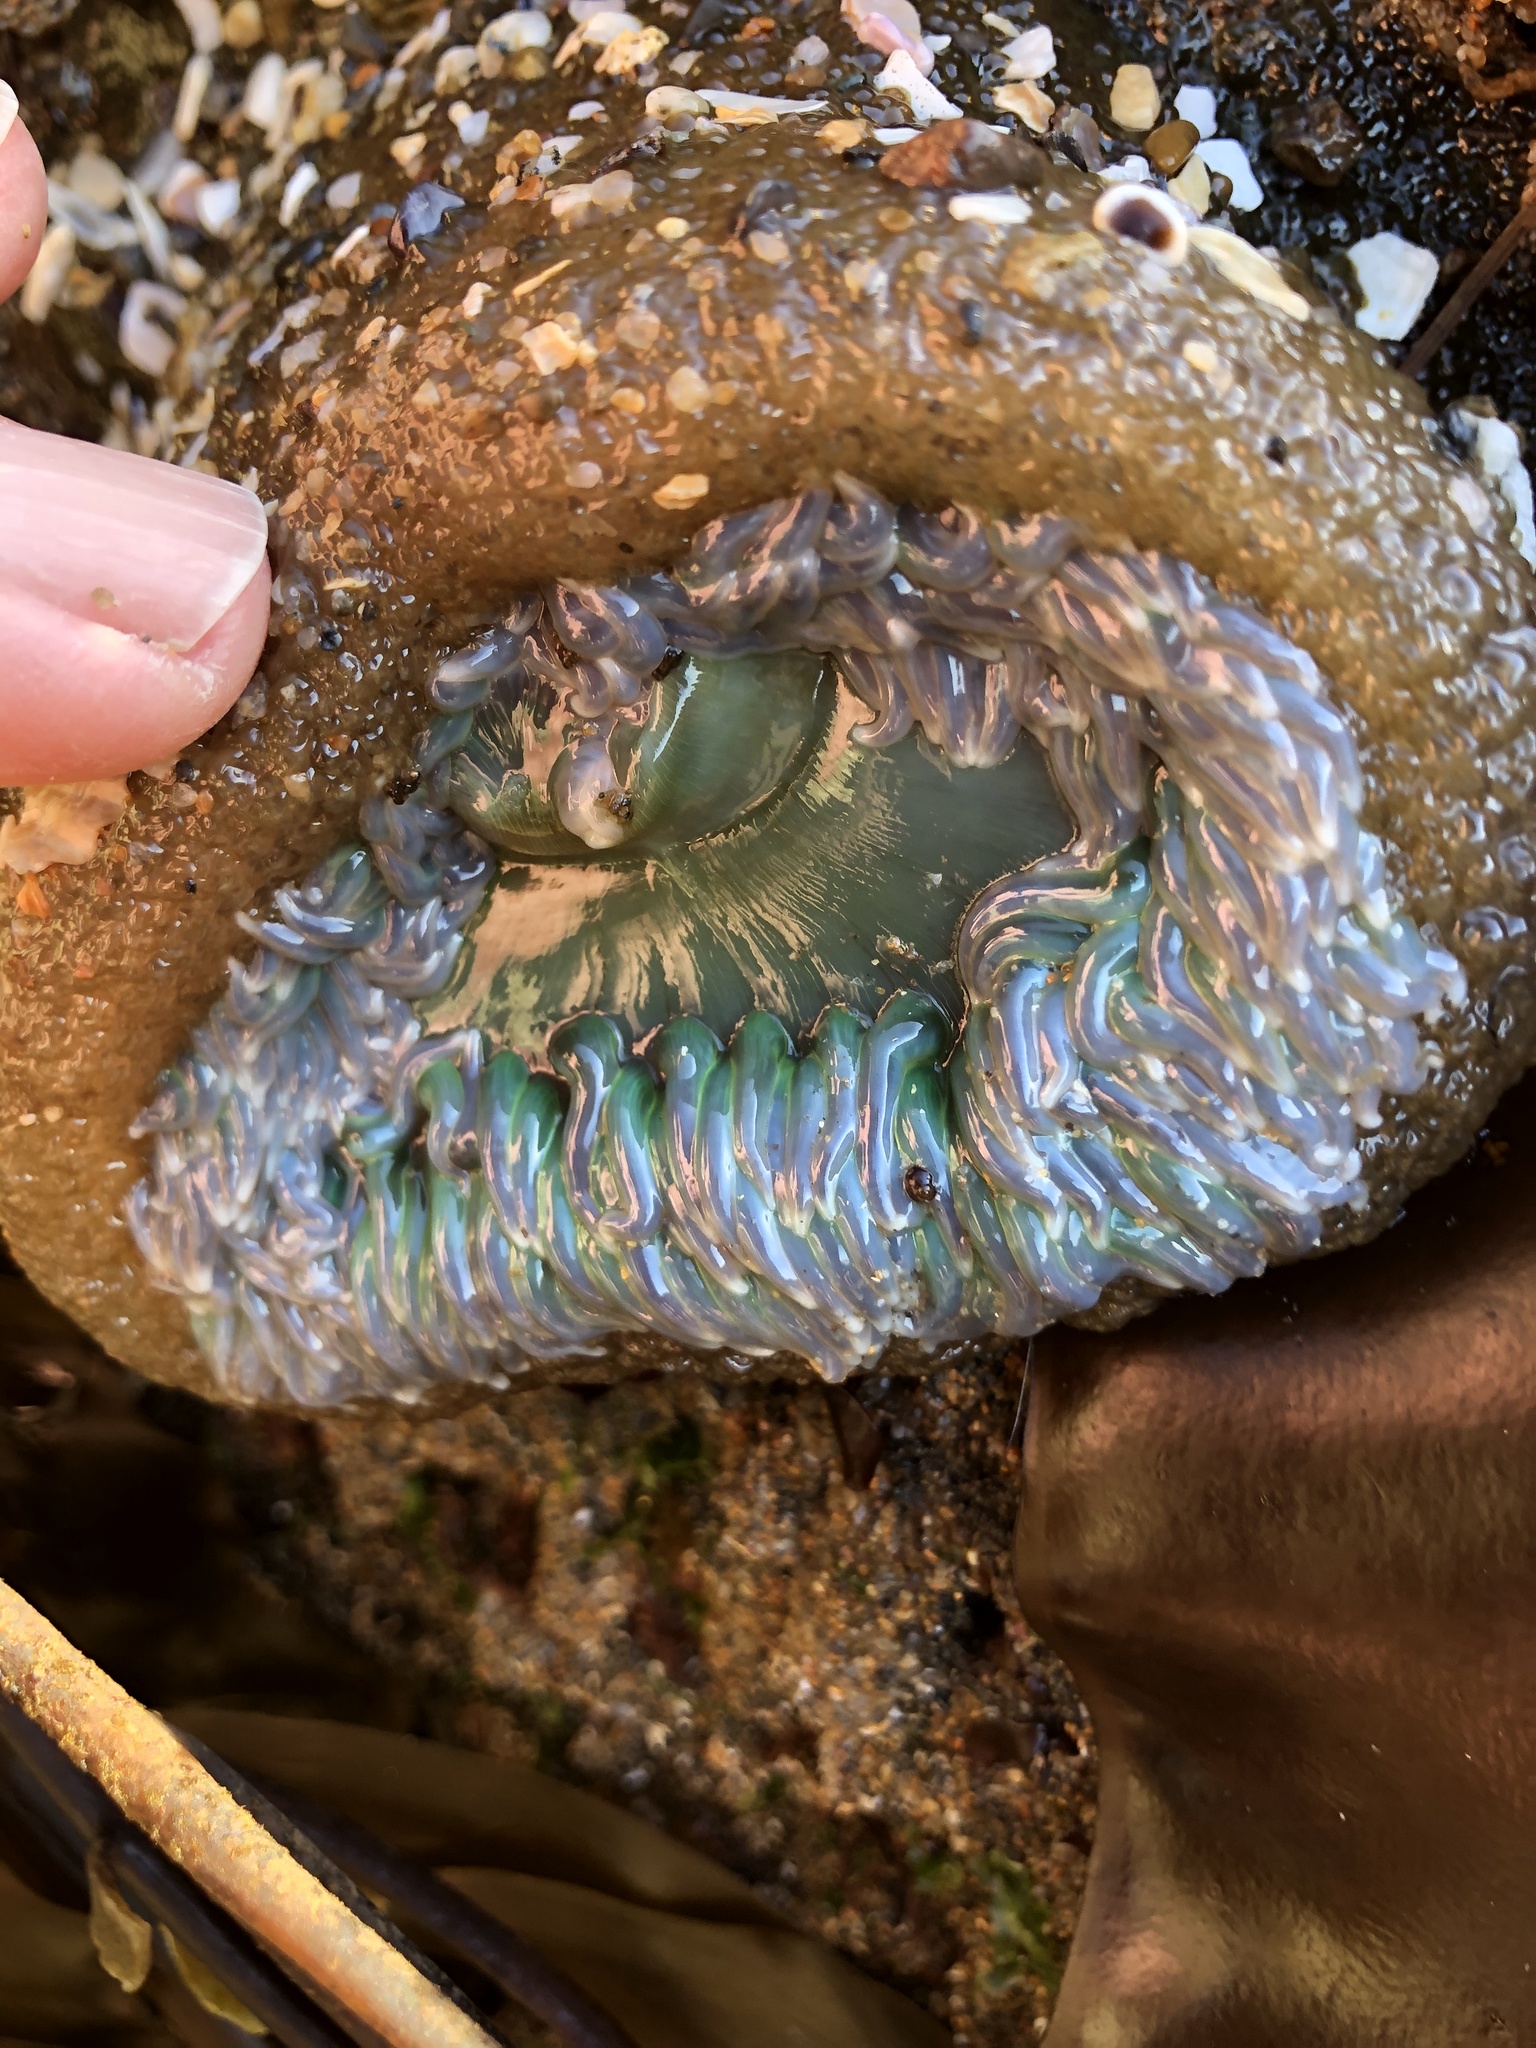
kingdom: Animalia
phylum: Cnidaria
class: Anthozoa
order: Actiniaria
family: Actiniidae
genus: Anthopleura
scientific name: Anthopleura xanthogrammica
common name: Giant green anemone
